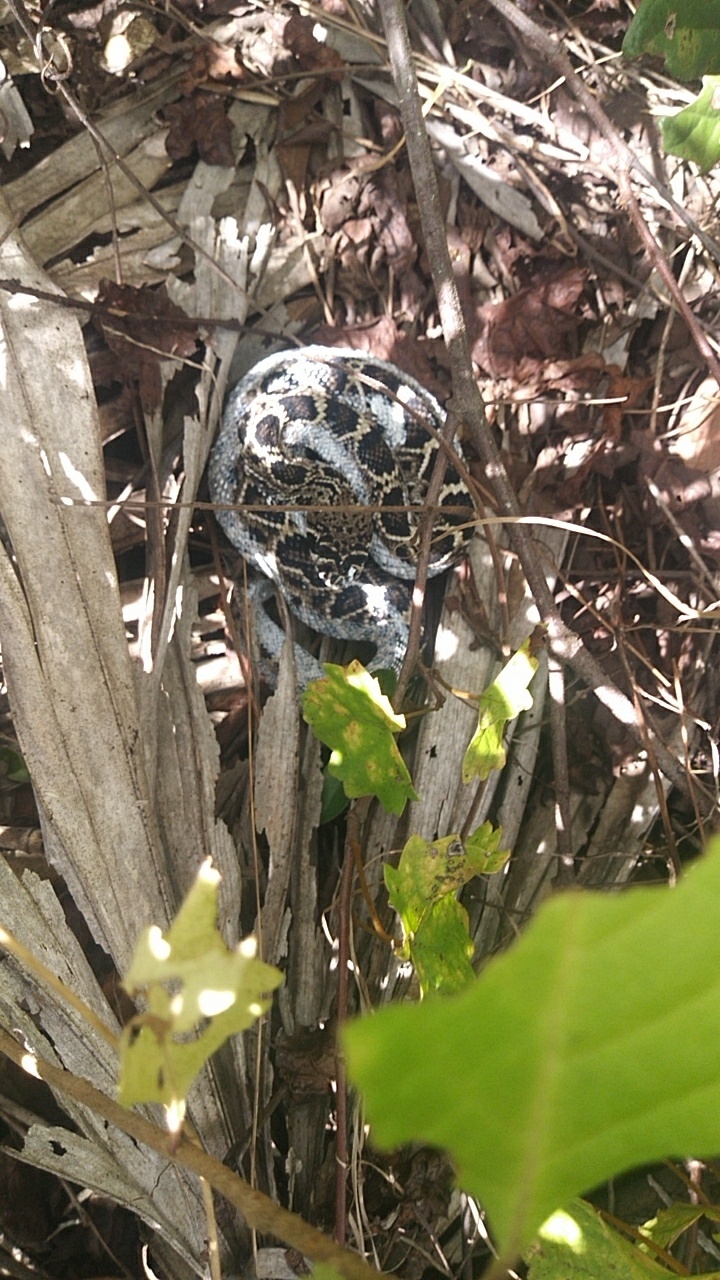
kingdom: Animalia
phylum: Chordata
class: Squamata
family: Viperidae
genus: Crotalus
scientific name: Crotalus adamanteus
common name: Eastern diamondback rattlesnake
